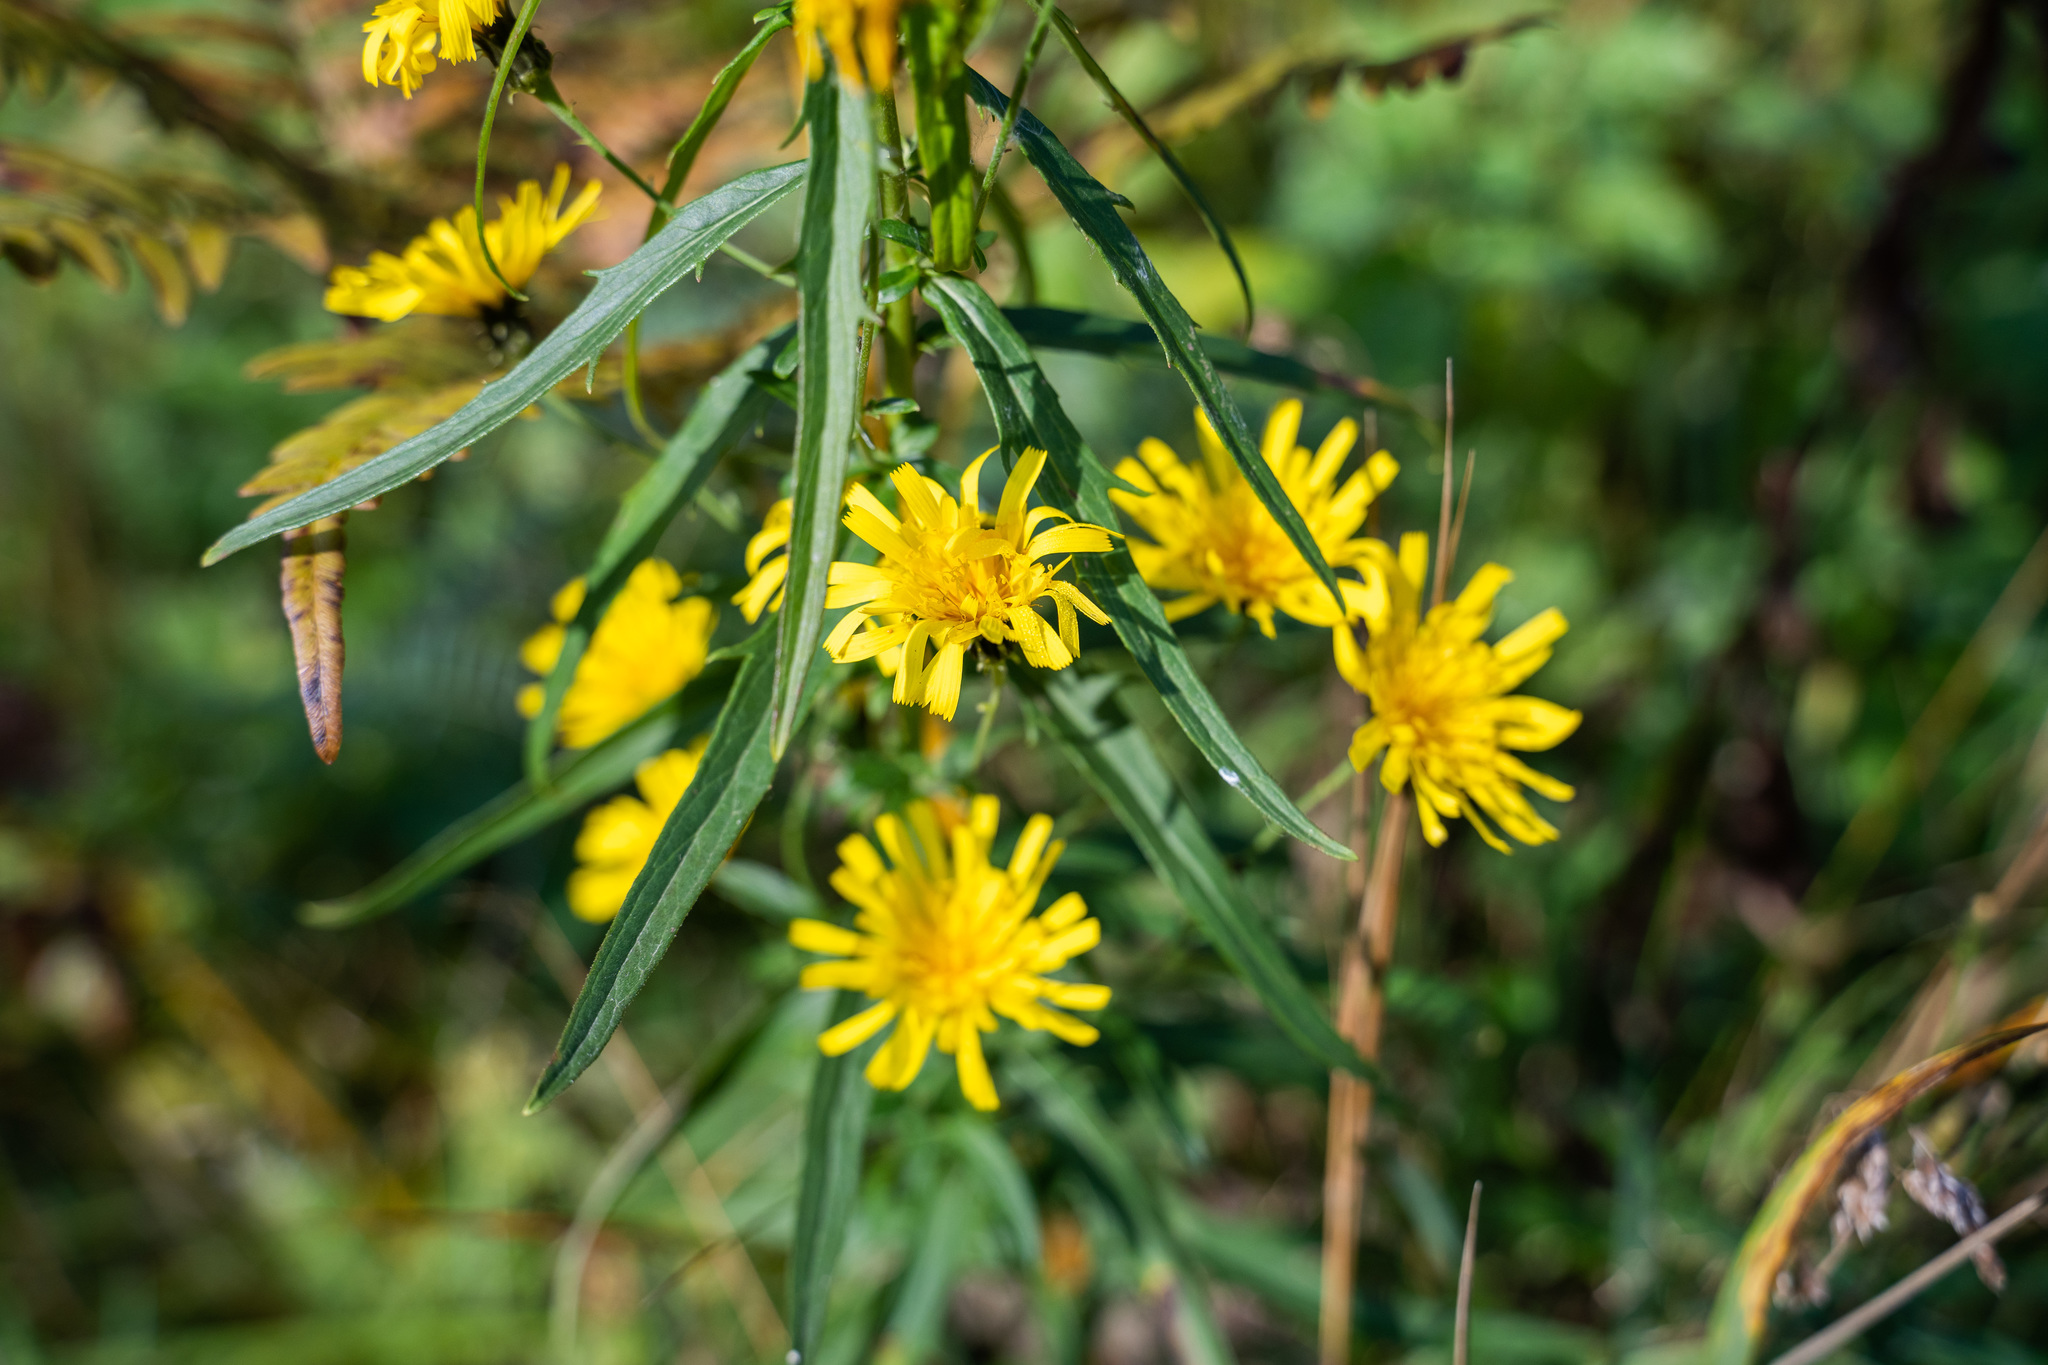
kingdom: Plantae
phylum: Tracheophyta
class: Magnoliopsida
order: Asterales
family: Asteraceae
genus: Hieracium
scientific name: Hieracium umbellatum
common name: Northern hawkweed
